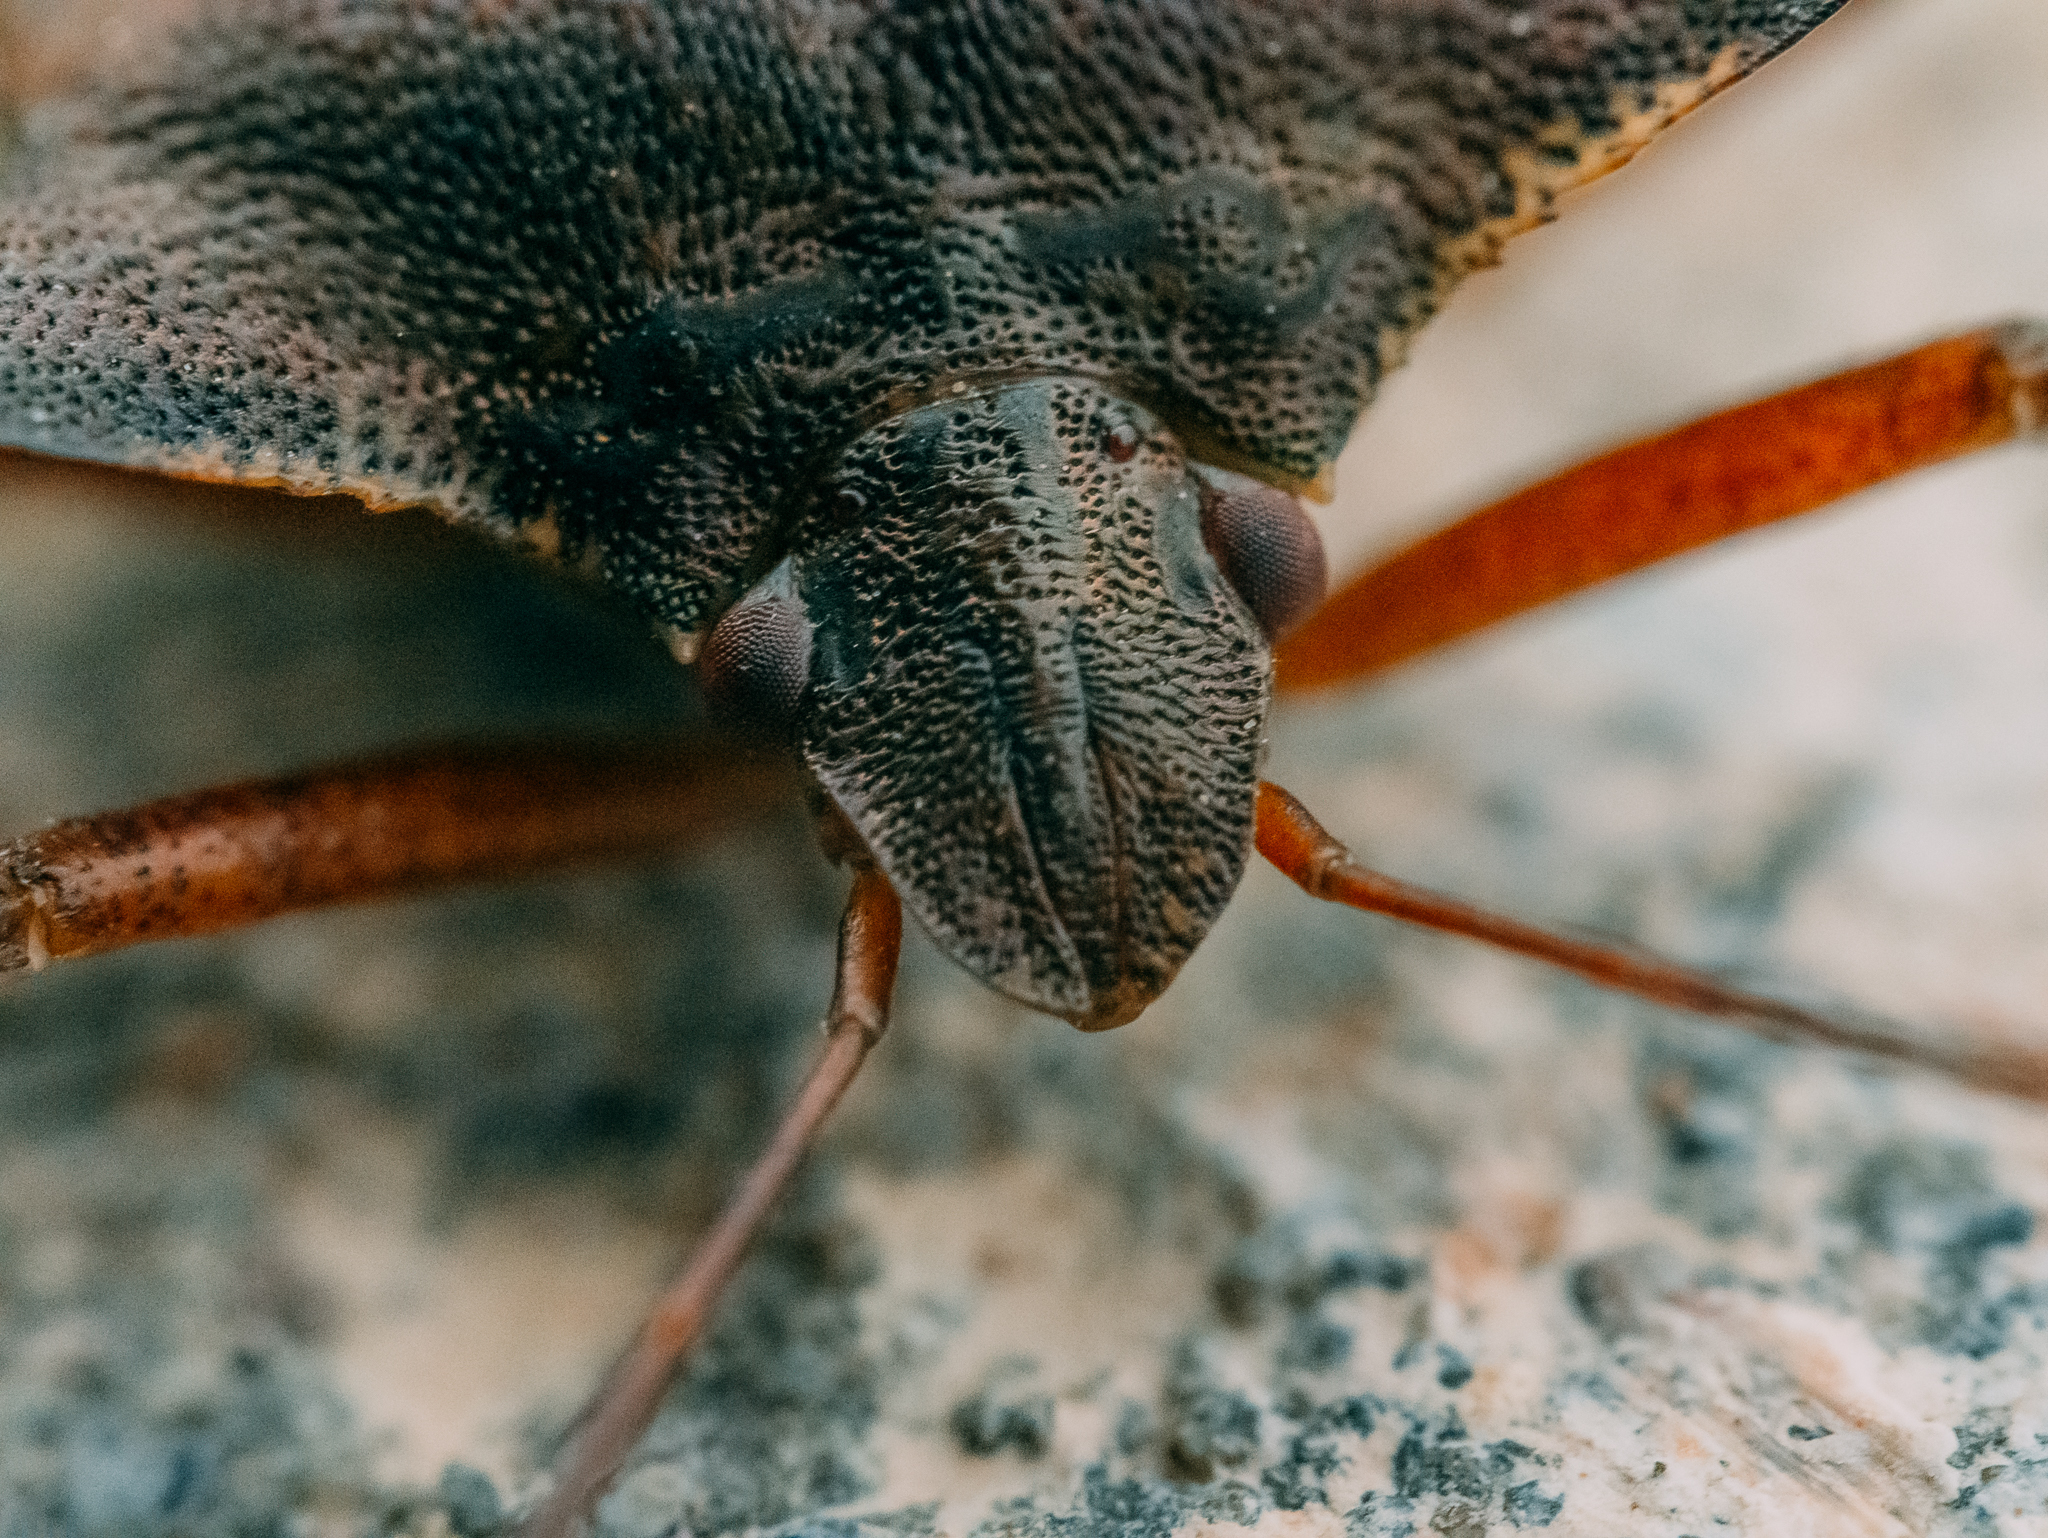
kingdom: Animalia
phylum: Arthropoda
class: Insecta
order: Hemiptera
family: Pentatomidae
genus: Pentatoma
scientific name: Pentatoma rufipes
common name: Forest bug
